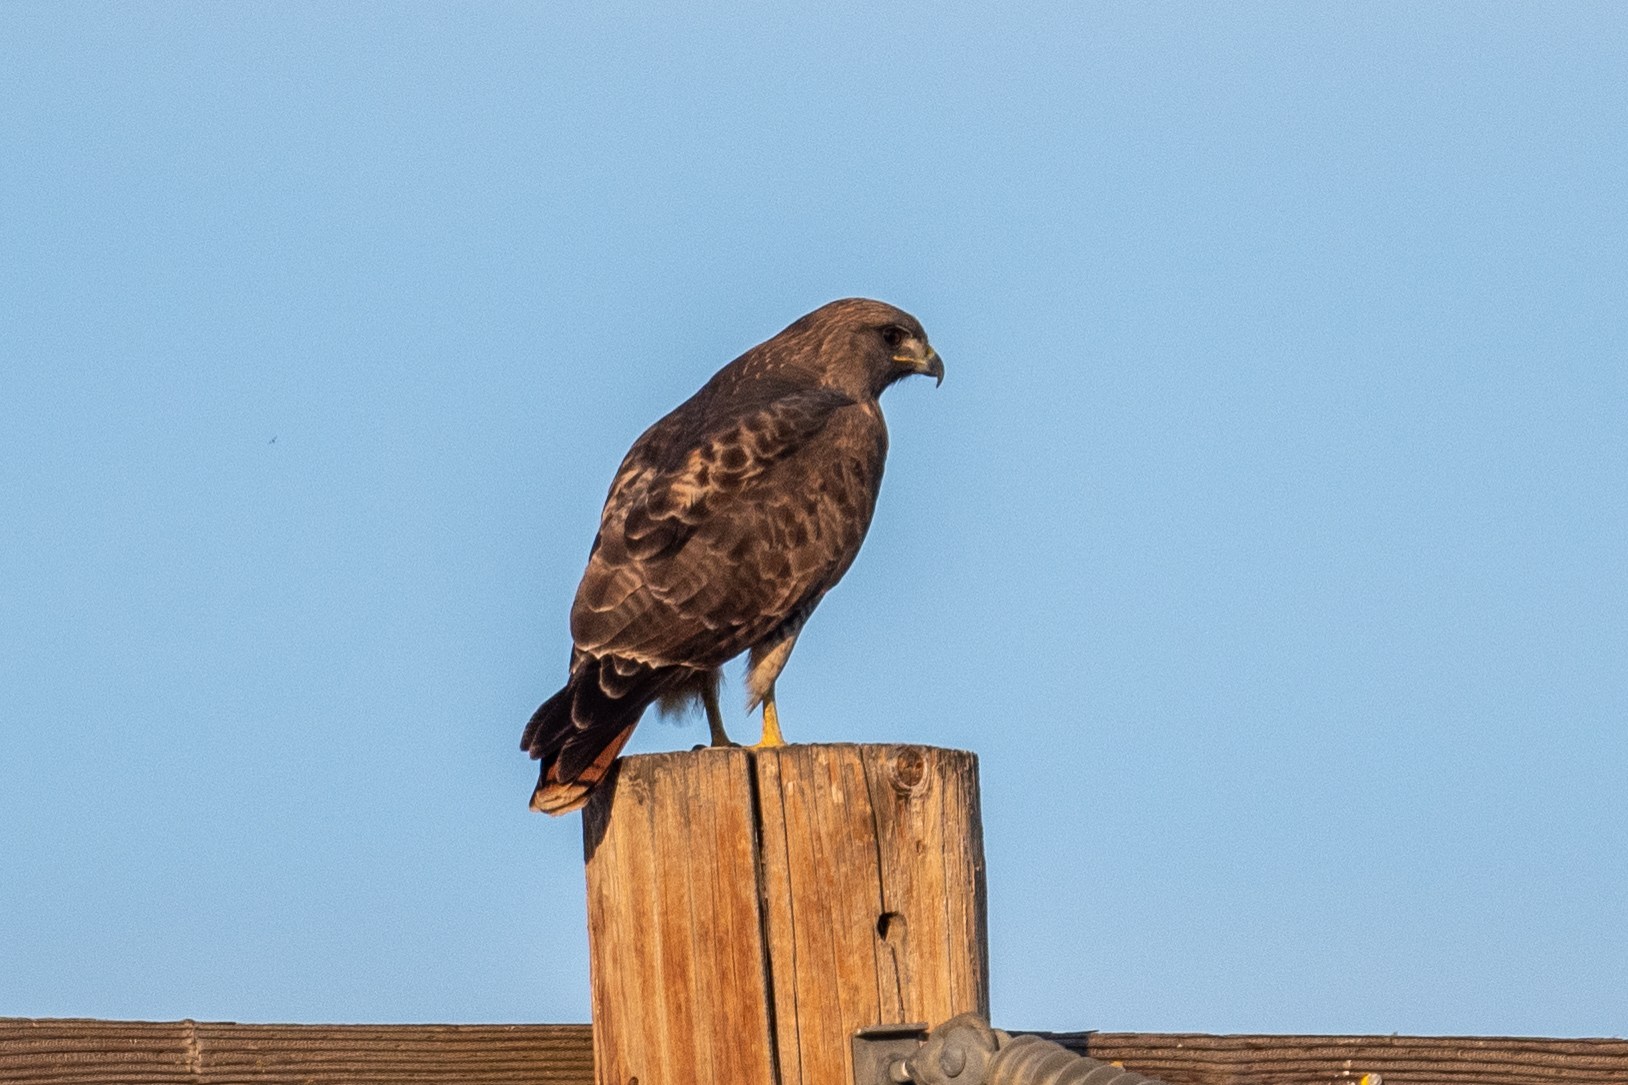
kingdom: Animalia
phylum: Chordata
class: Aves
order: Accipitriformes
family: Accipitridae
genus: Buteo
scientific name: Buteo jamaicensis
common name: Red-tailed hawk
